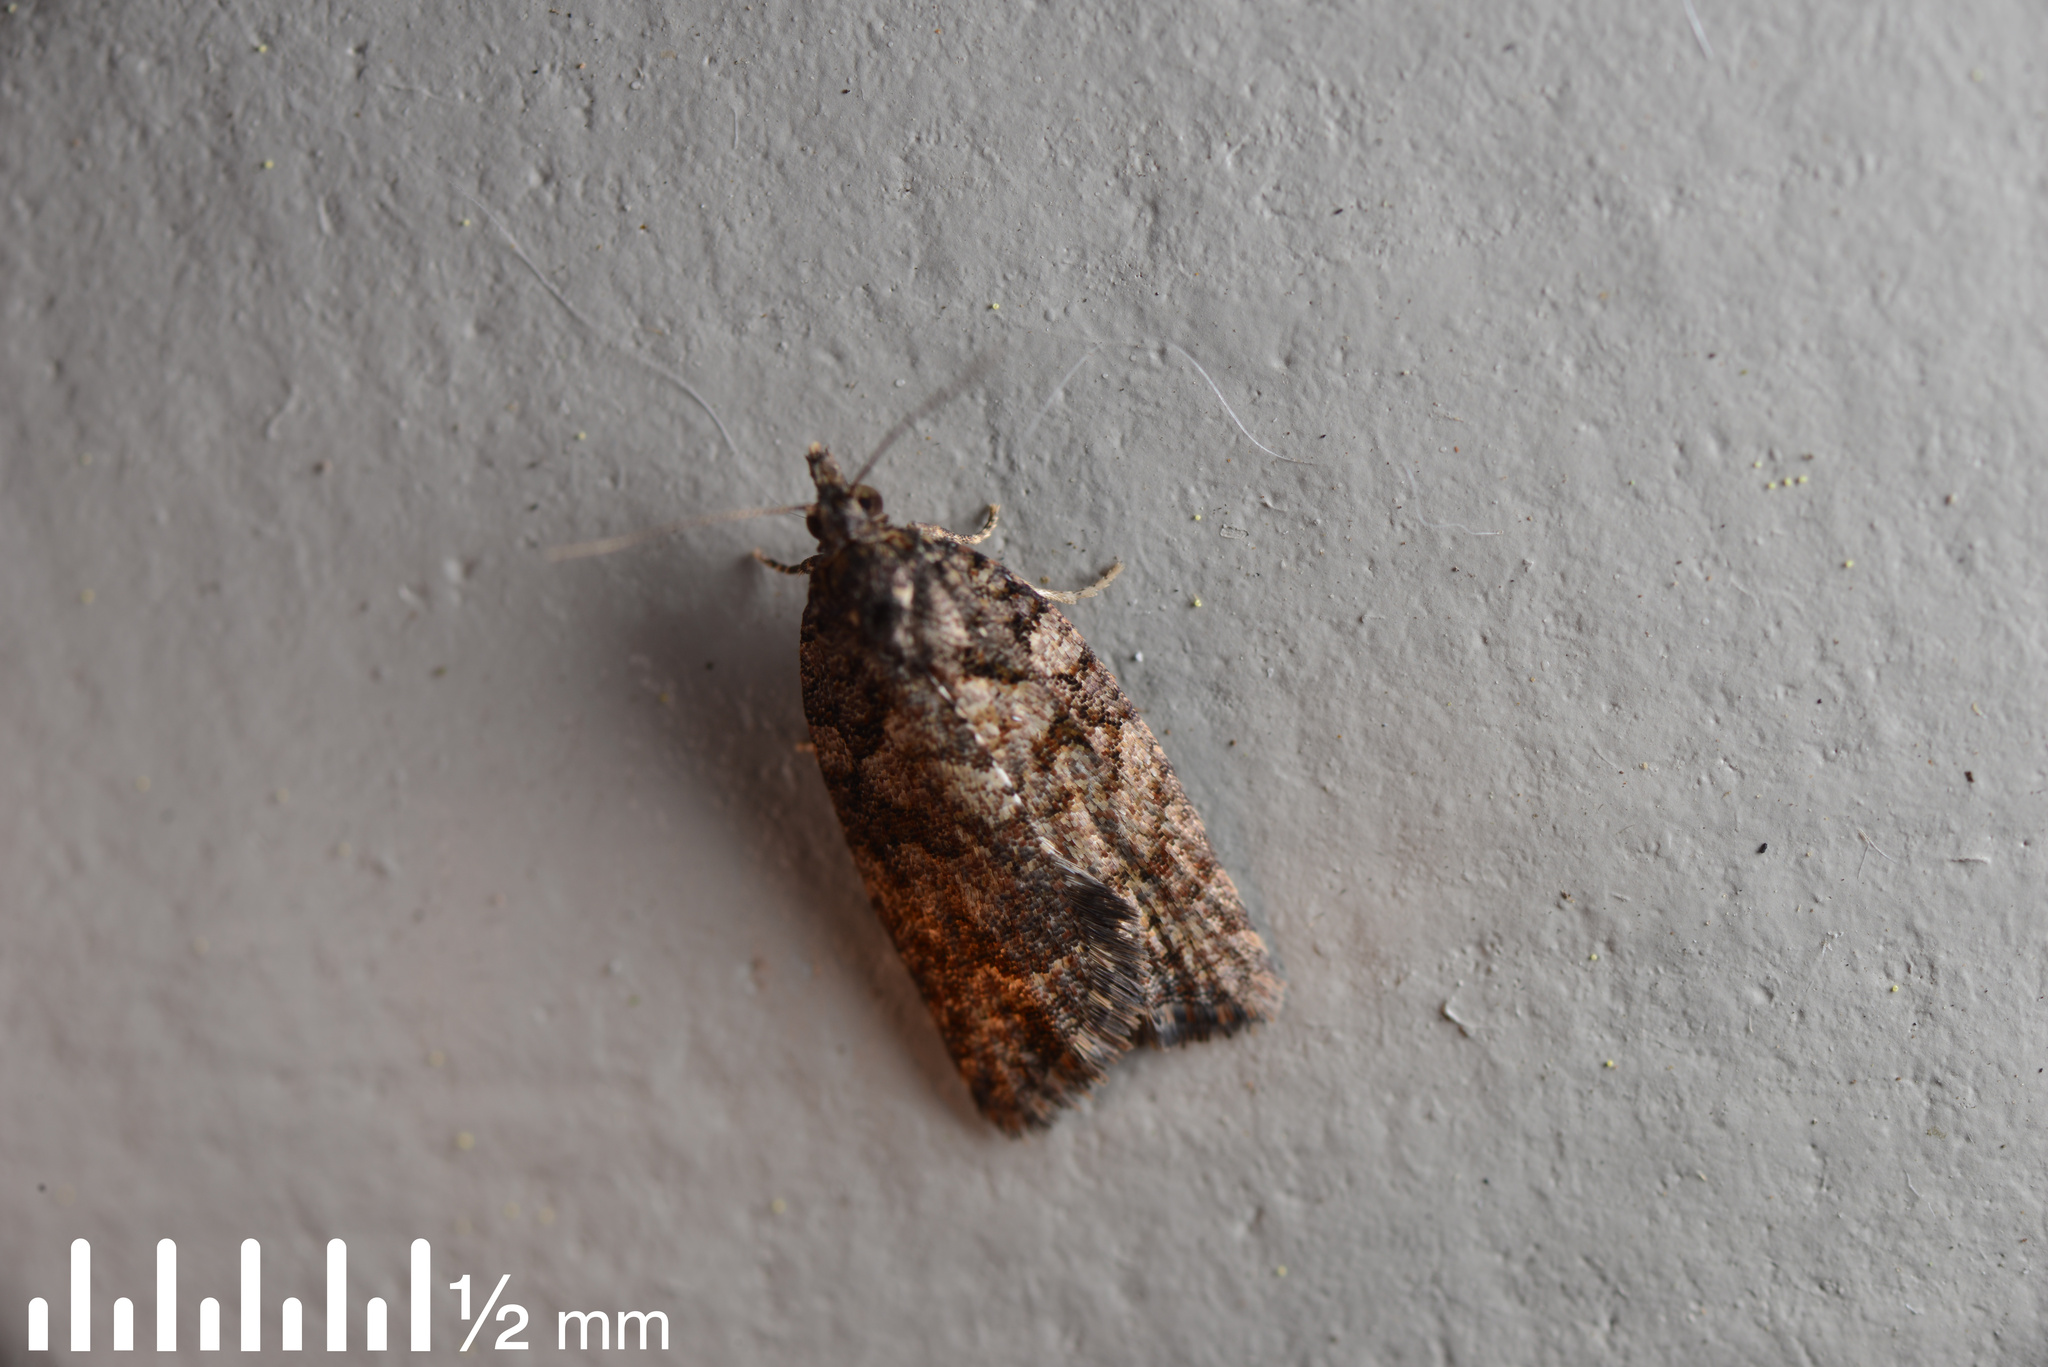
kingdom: Animalia
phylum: Arthropoda
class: Insecta
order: Lepidoptera
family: Tortricidae
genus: Capua
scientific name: Capua intractana
